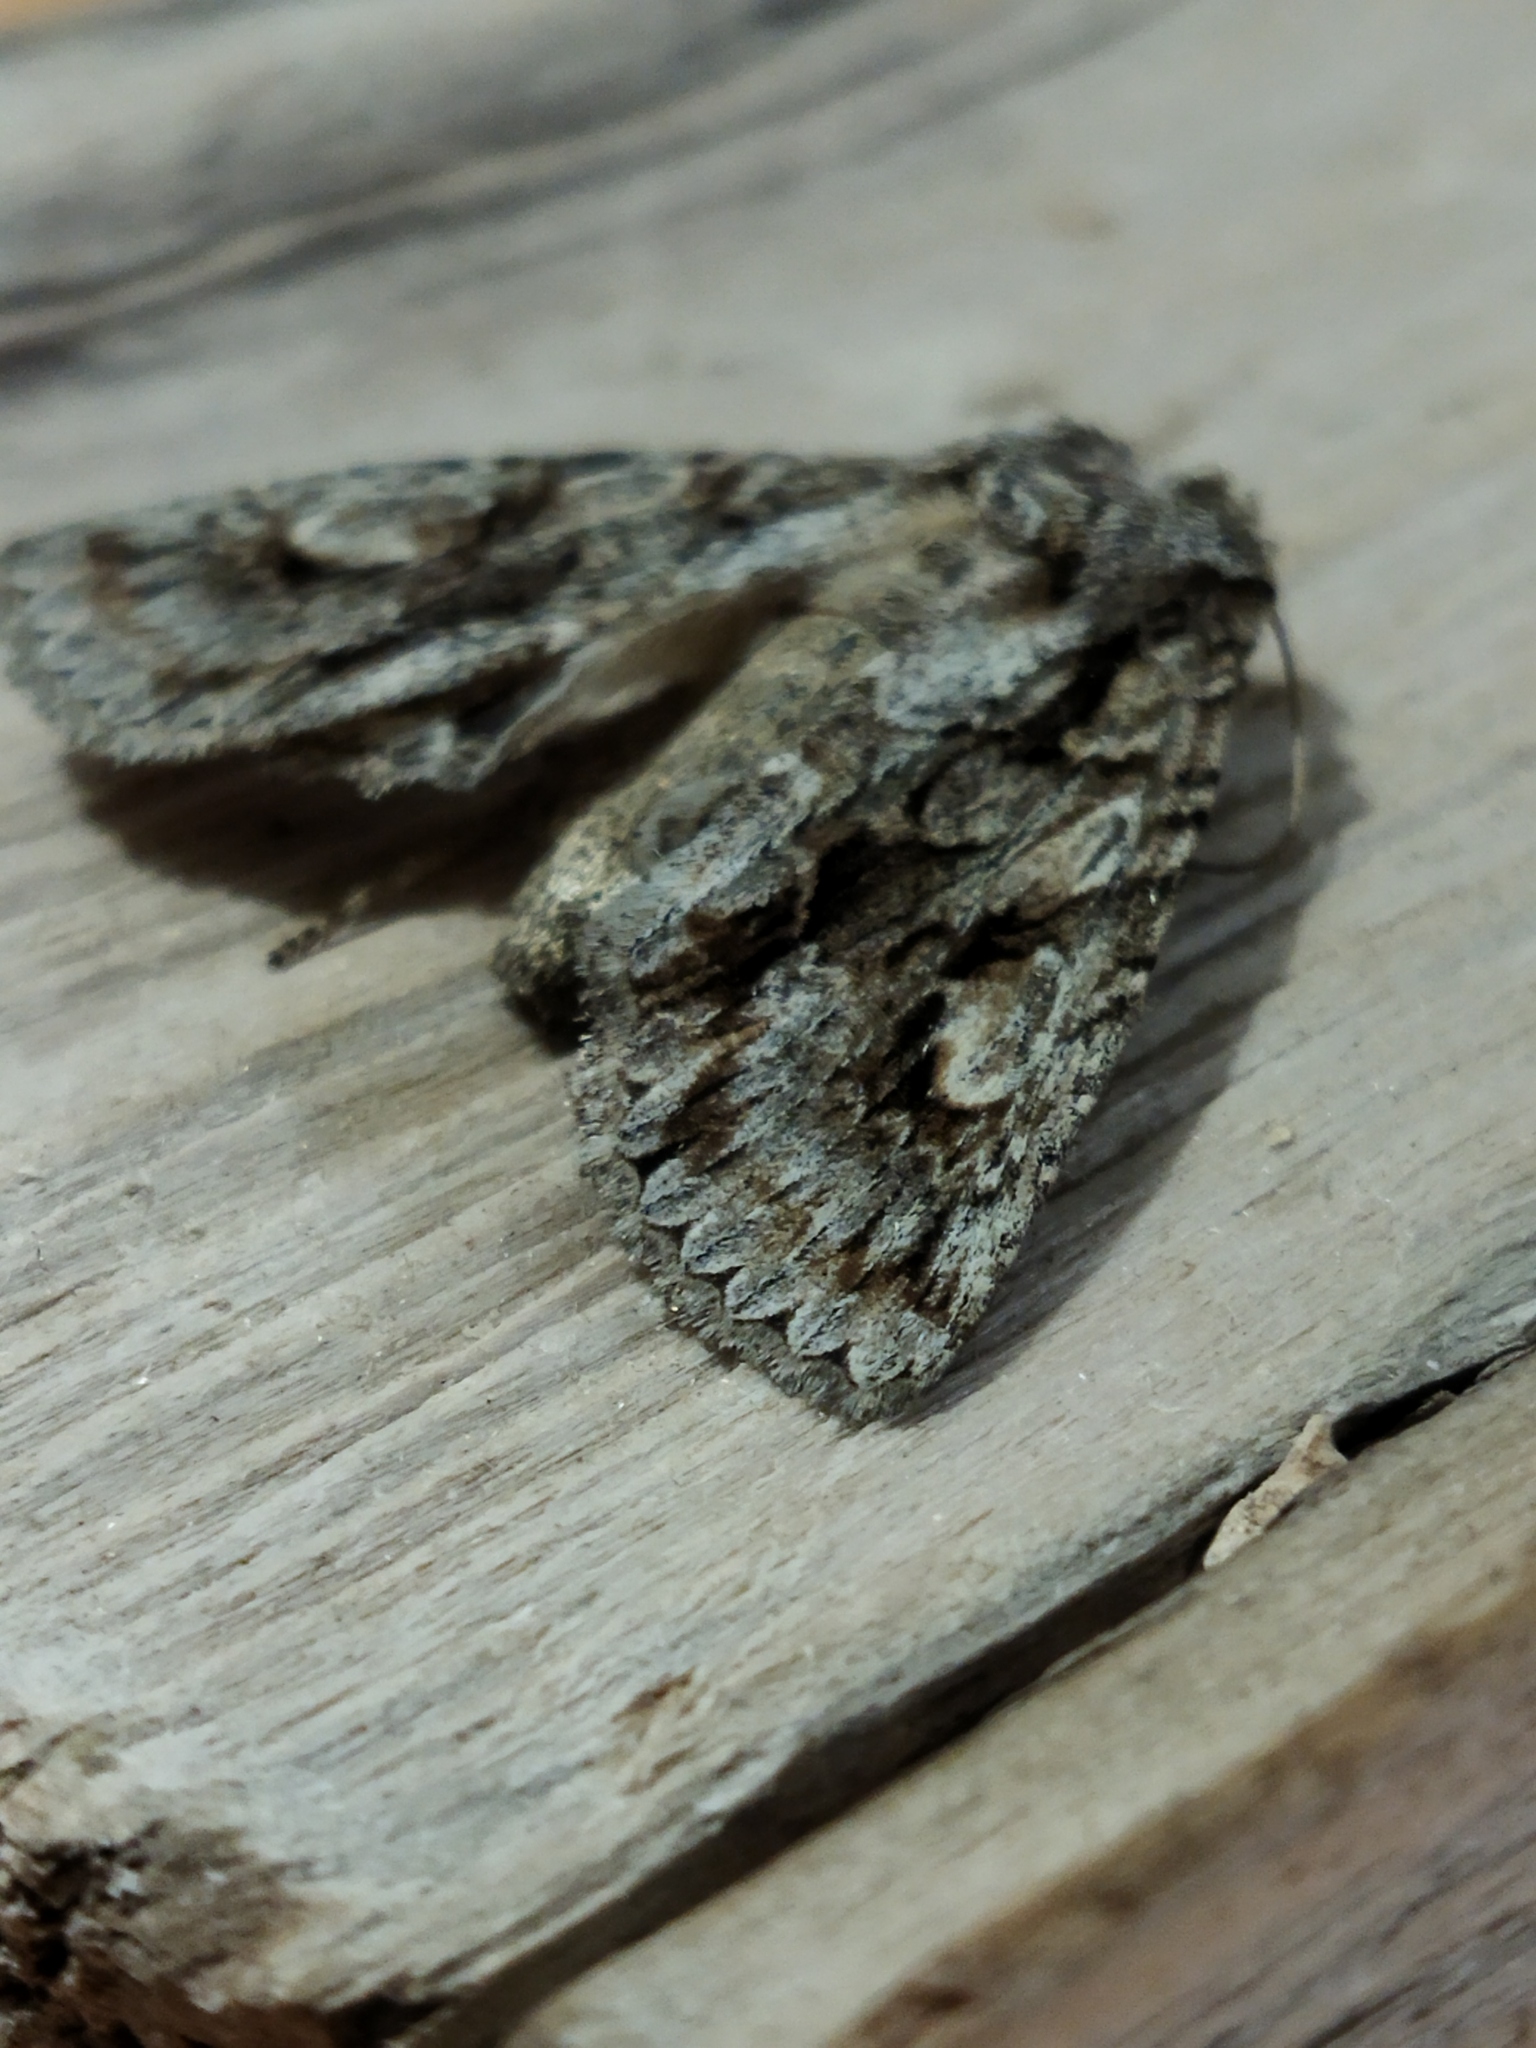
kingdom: Animalia
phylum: Arthropoda
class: Insecta
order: Lepidoptera
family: Noctuidae
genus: Meganephria
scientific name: Meganephria bimaculosa
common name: Double-spot brocade
